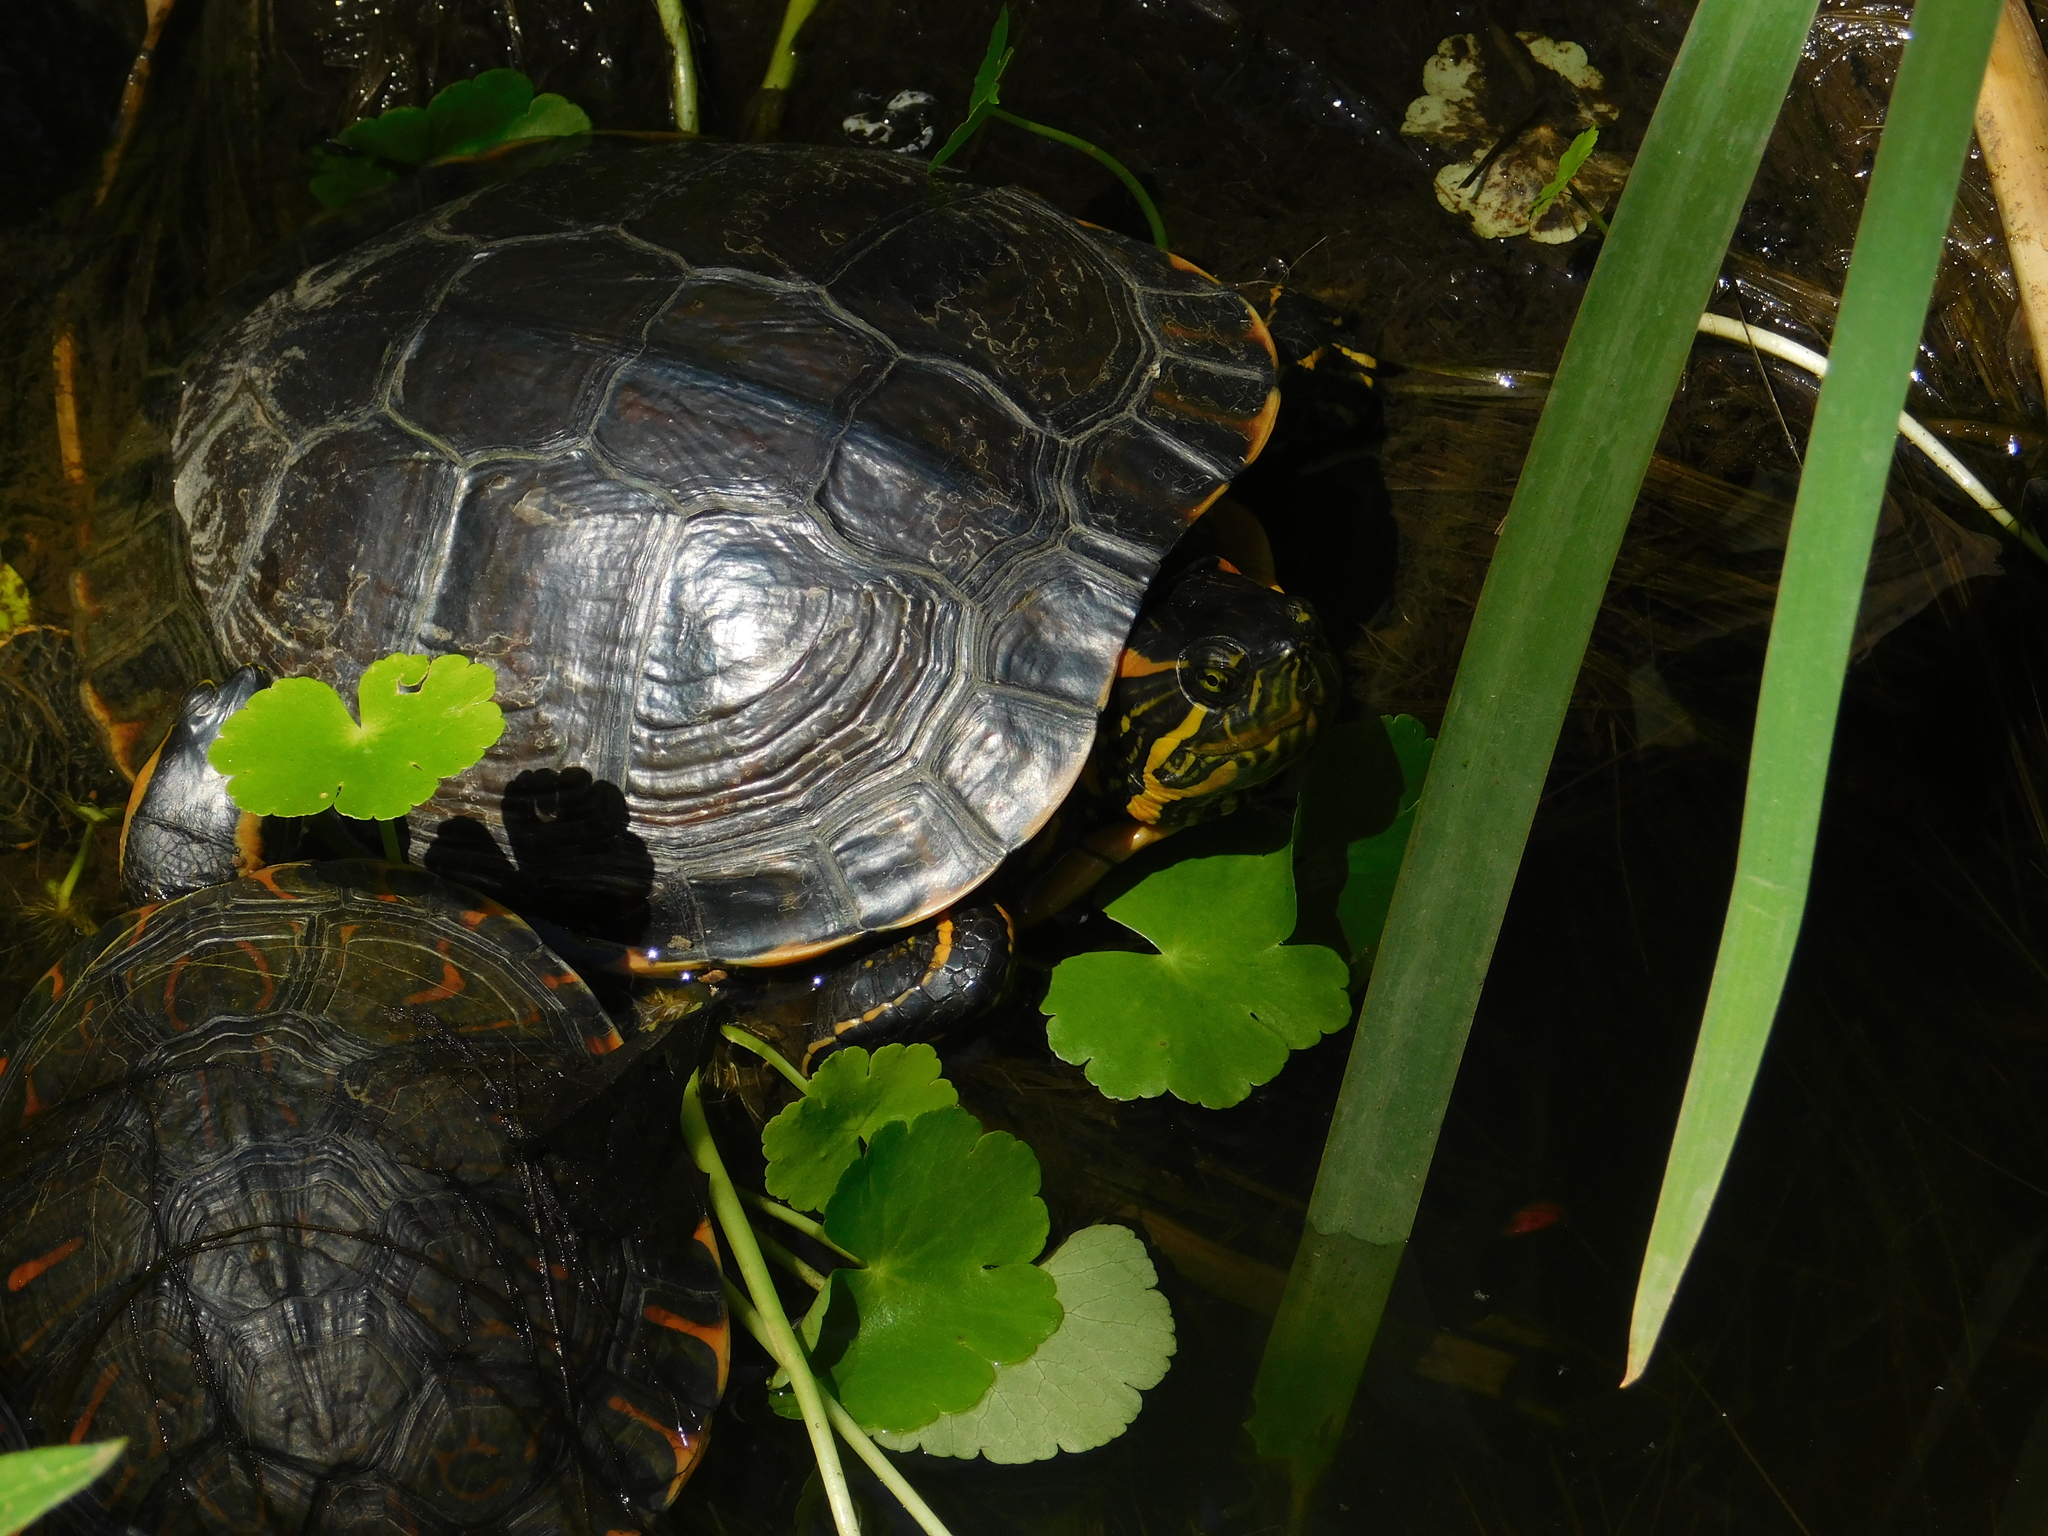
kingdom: Animalia
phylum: Chordata
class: Testudines
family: Emydidae
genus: Trachemys
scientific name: Trachemys dorbigni
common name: Black-bellied slider
